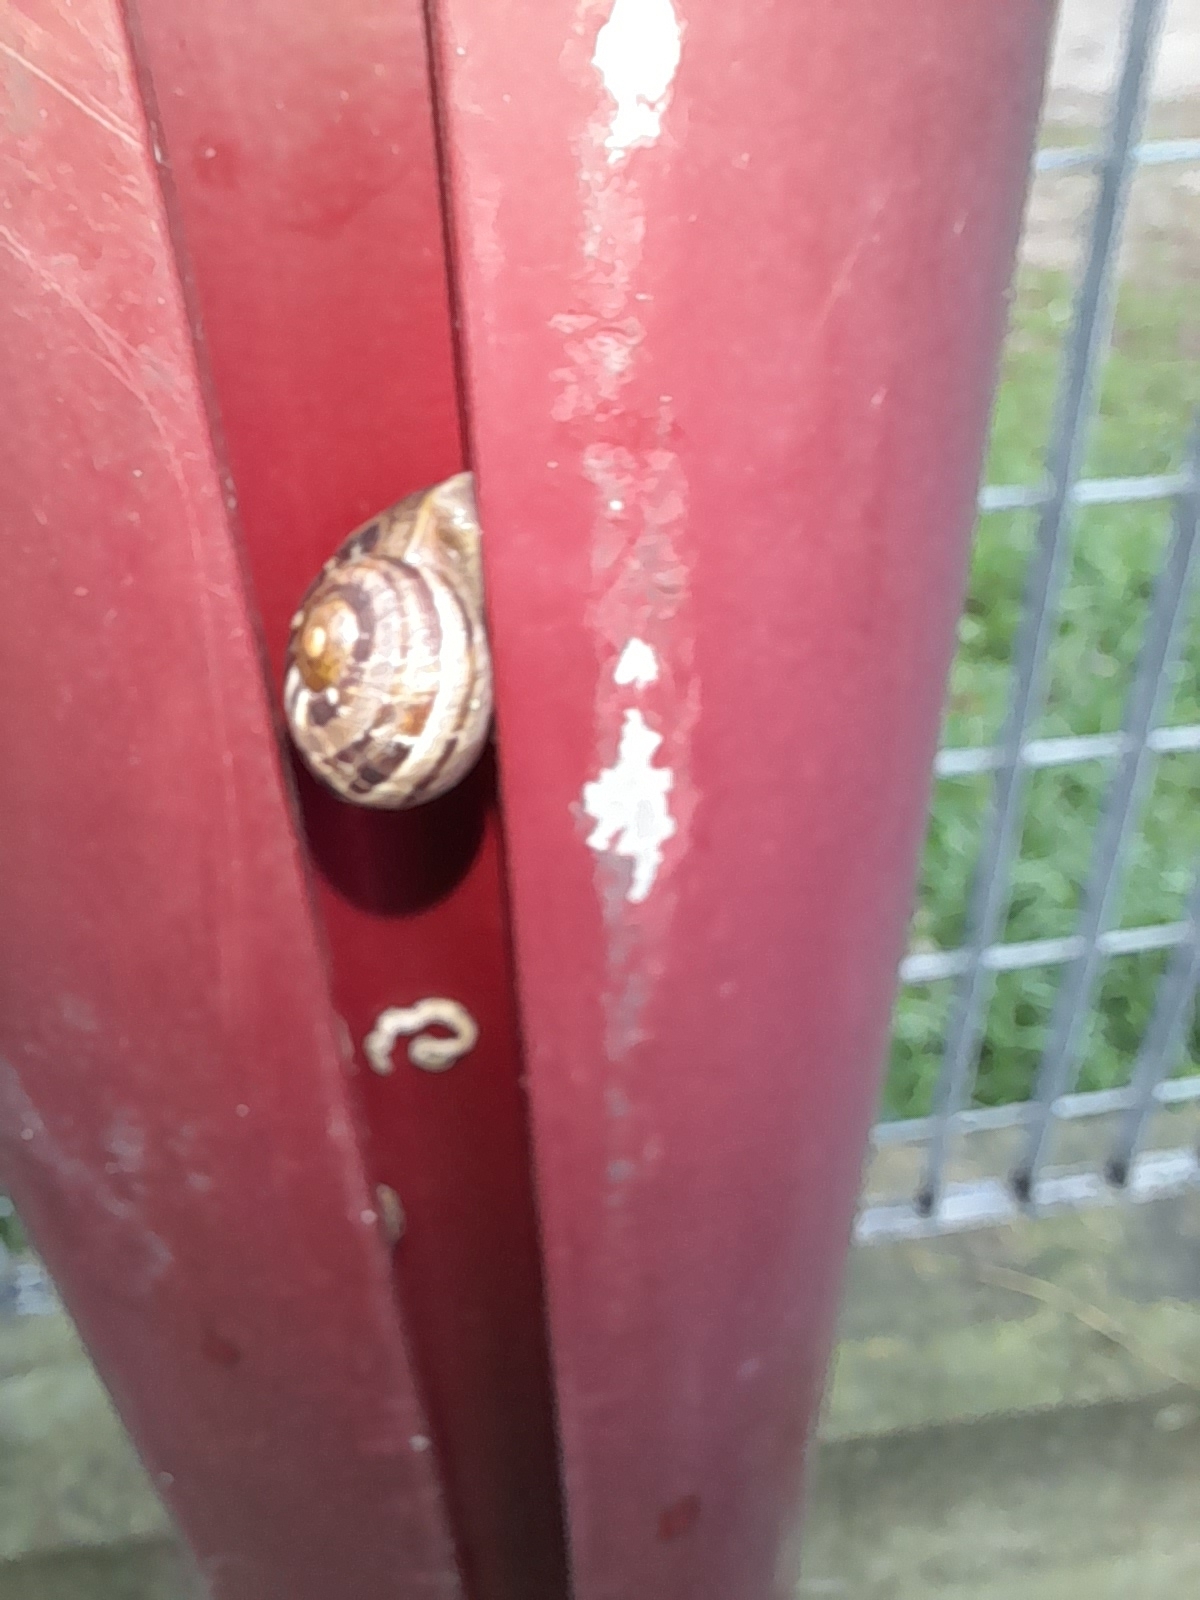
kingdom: Animalia
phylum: Mollusca
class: Gastropoda
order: Stylommatophora
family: Helicidae
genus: Cornu
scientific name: Cornu aspersum
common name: Brown garden snail
